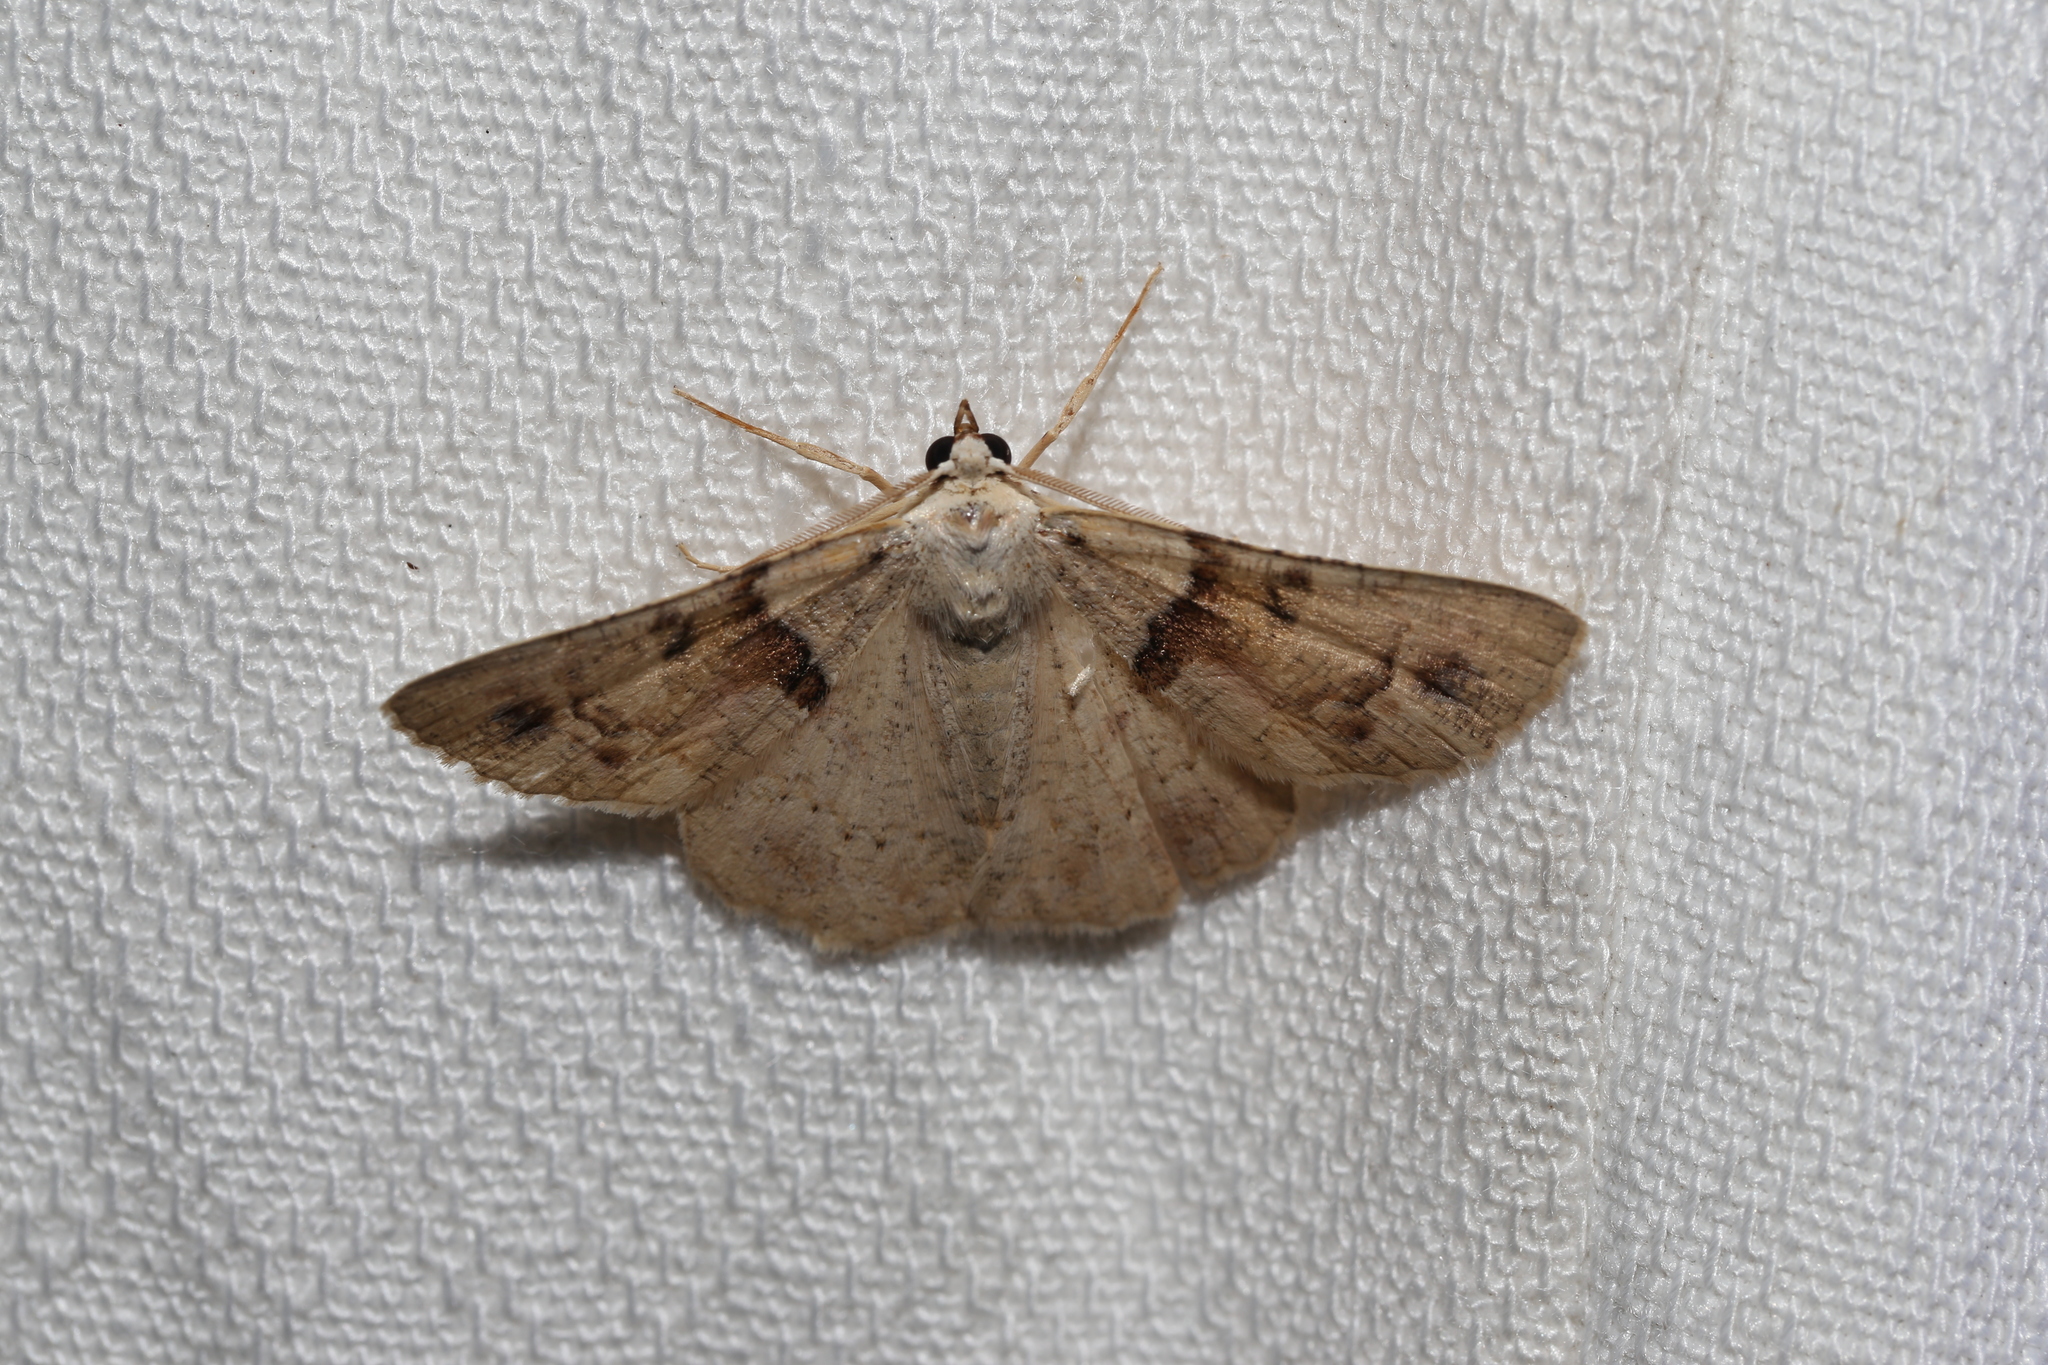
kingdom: Animalia
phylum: Arthropoda
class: Insecta
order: Lepidoptera
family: Geometridae
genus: Aeolochroma
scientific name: Aeolochroma melaleucae
